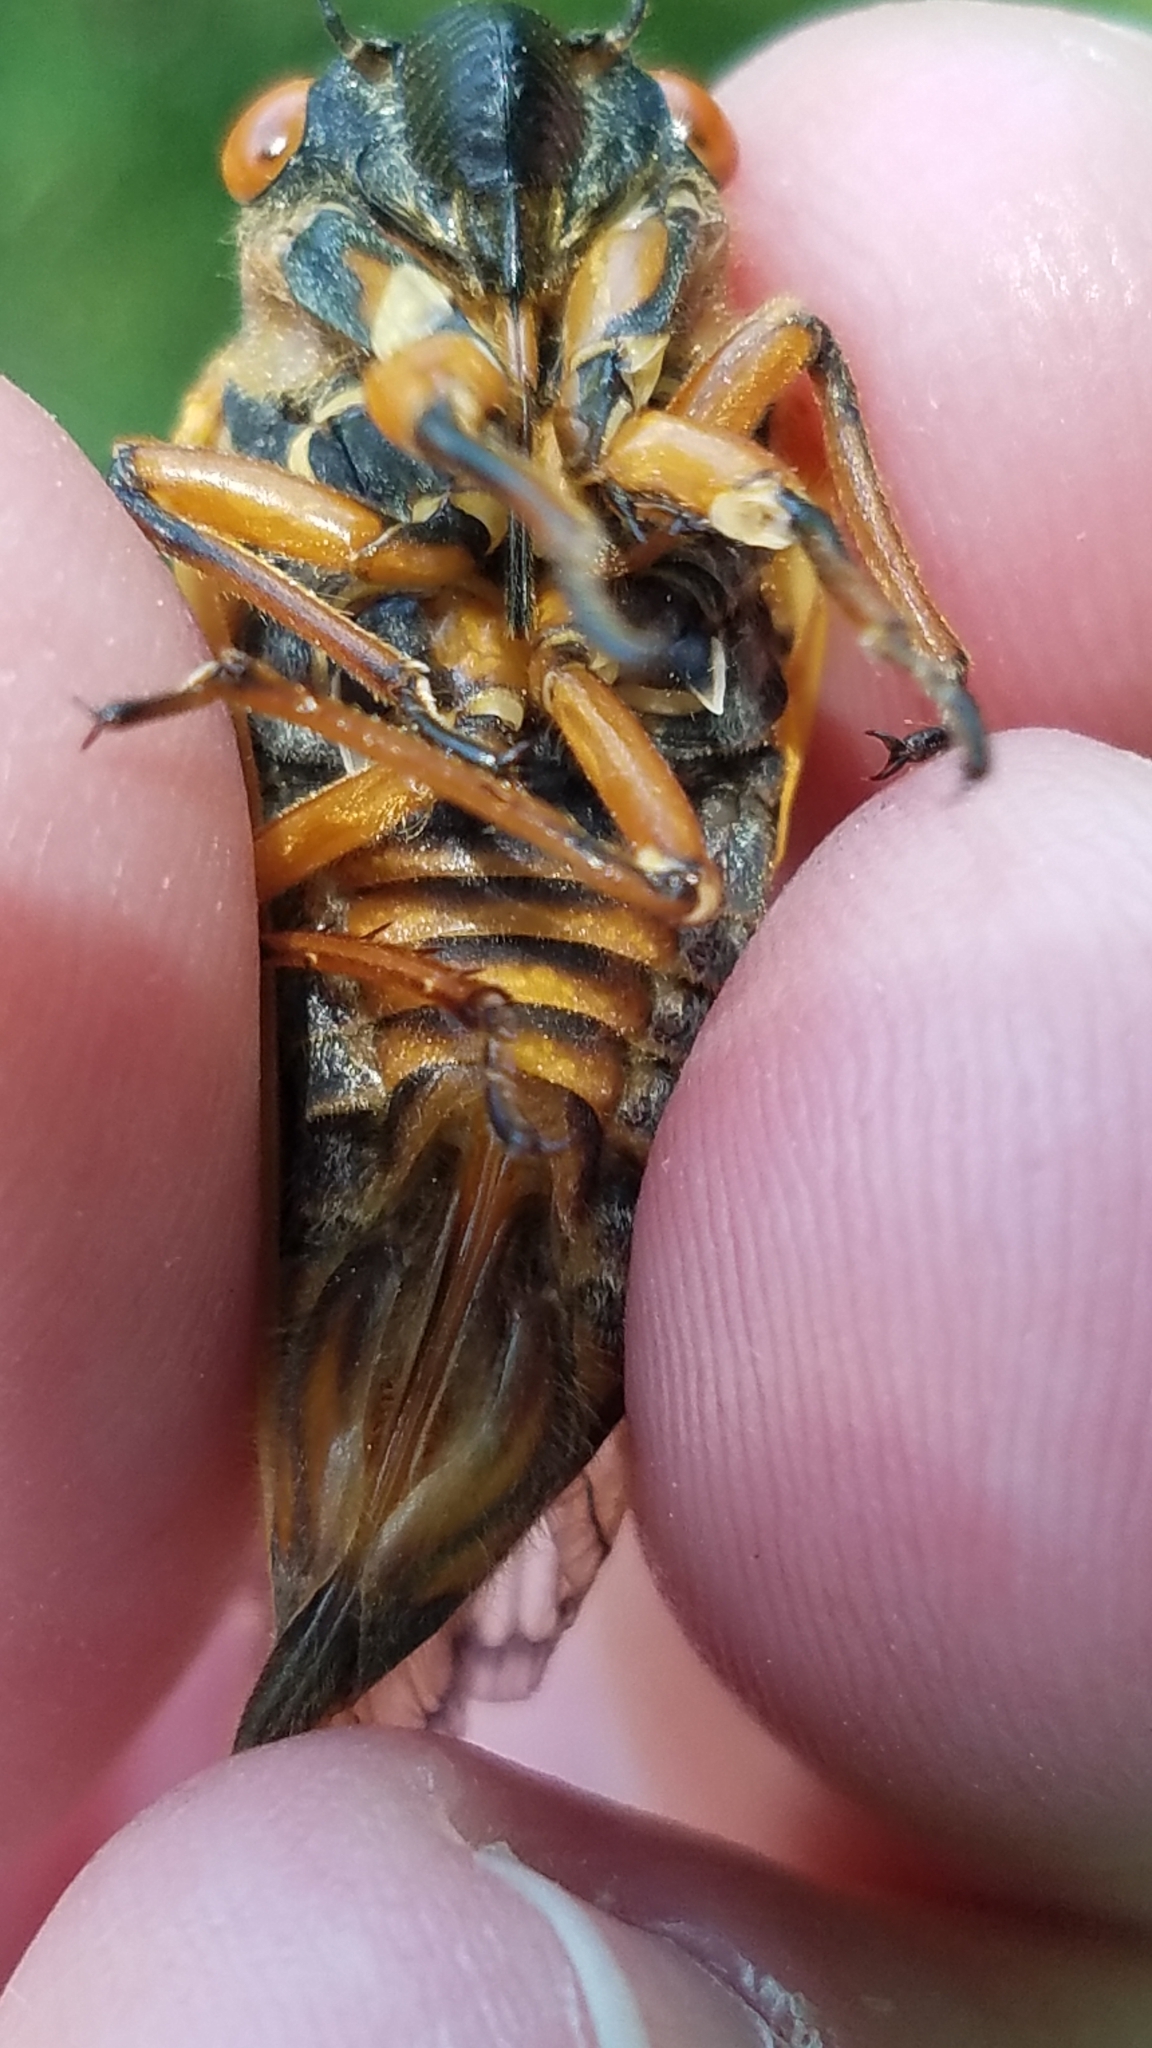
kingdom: Animalia
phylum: Arthropoda
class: Insecta
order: Hemiptera
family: Cicadidae
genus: Magicicada
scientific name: Magicicada septendecim
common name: Periodical cicada
